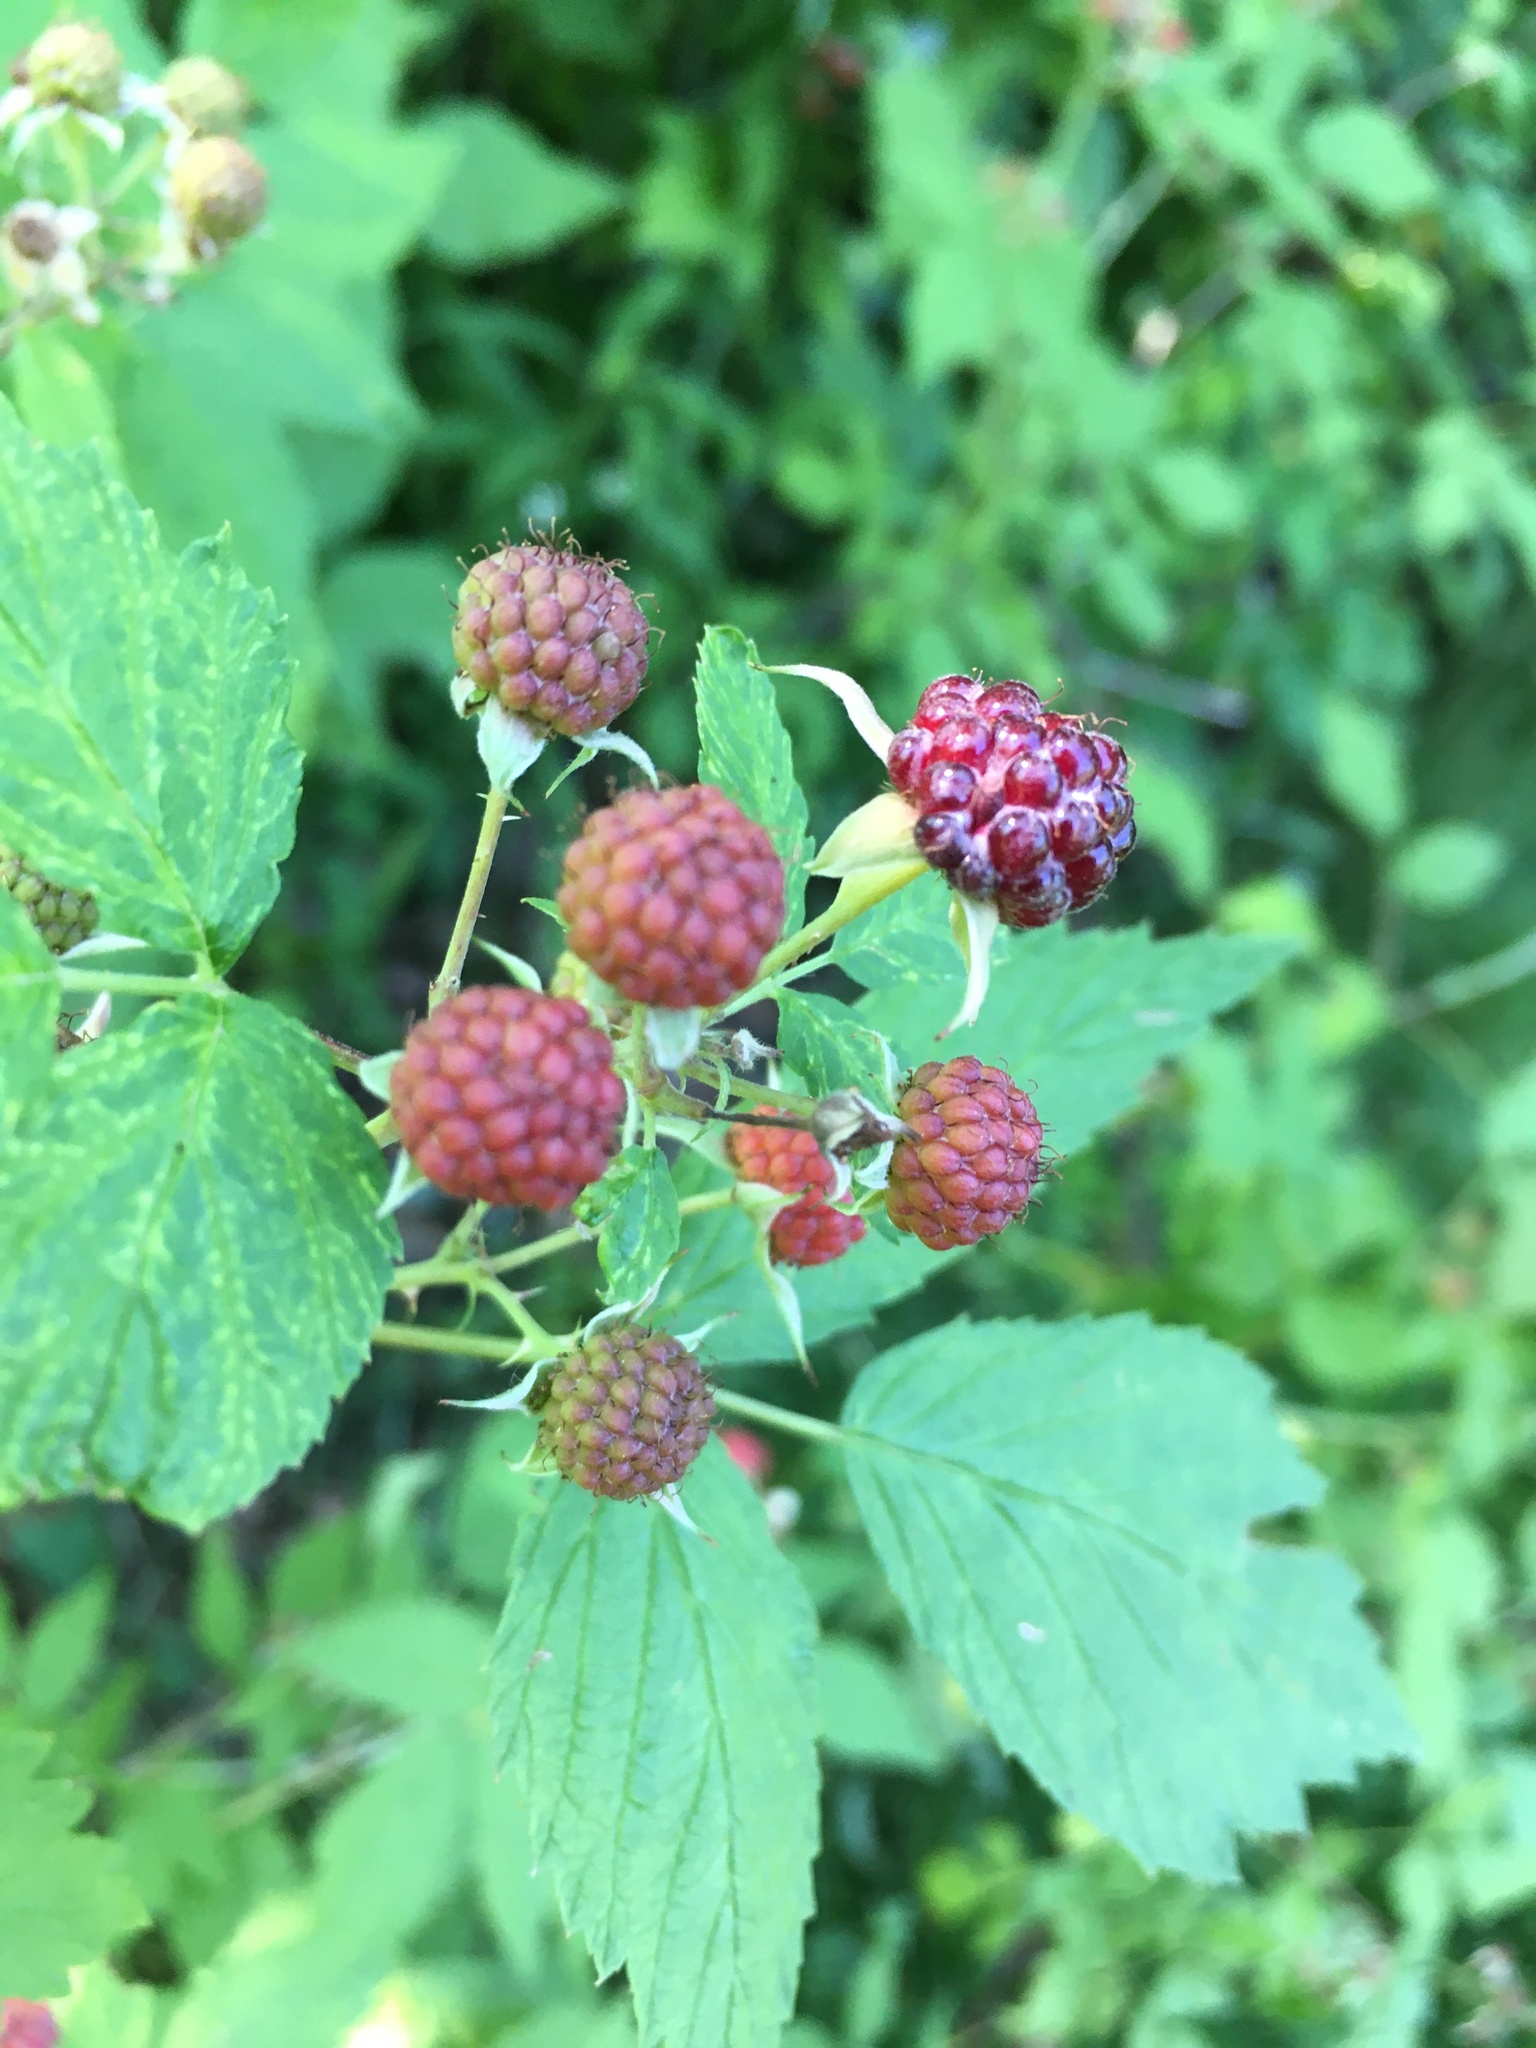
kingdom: Plantae
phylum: Tracheophyta
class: Magnoliopsida
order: Rosales
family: Rosaceae
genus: Rubus
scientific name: Rubus occidentalis
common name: Black raspberry
